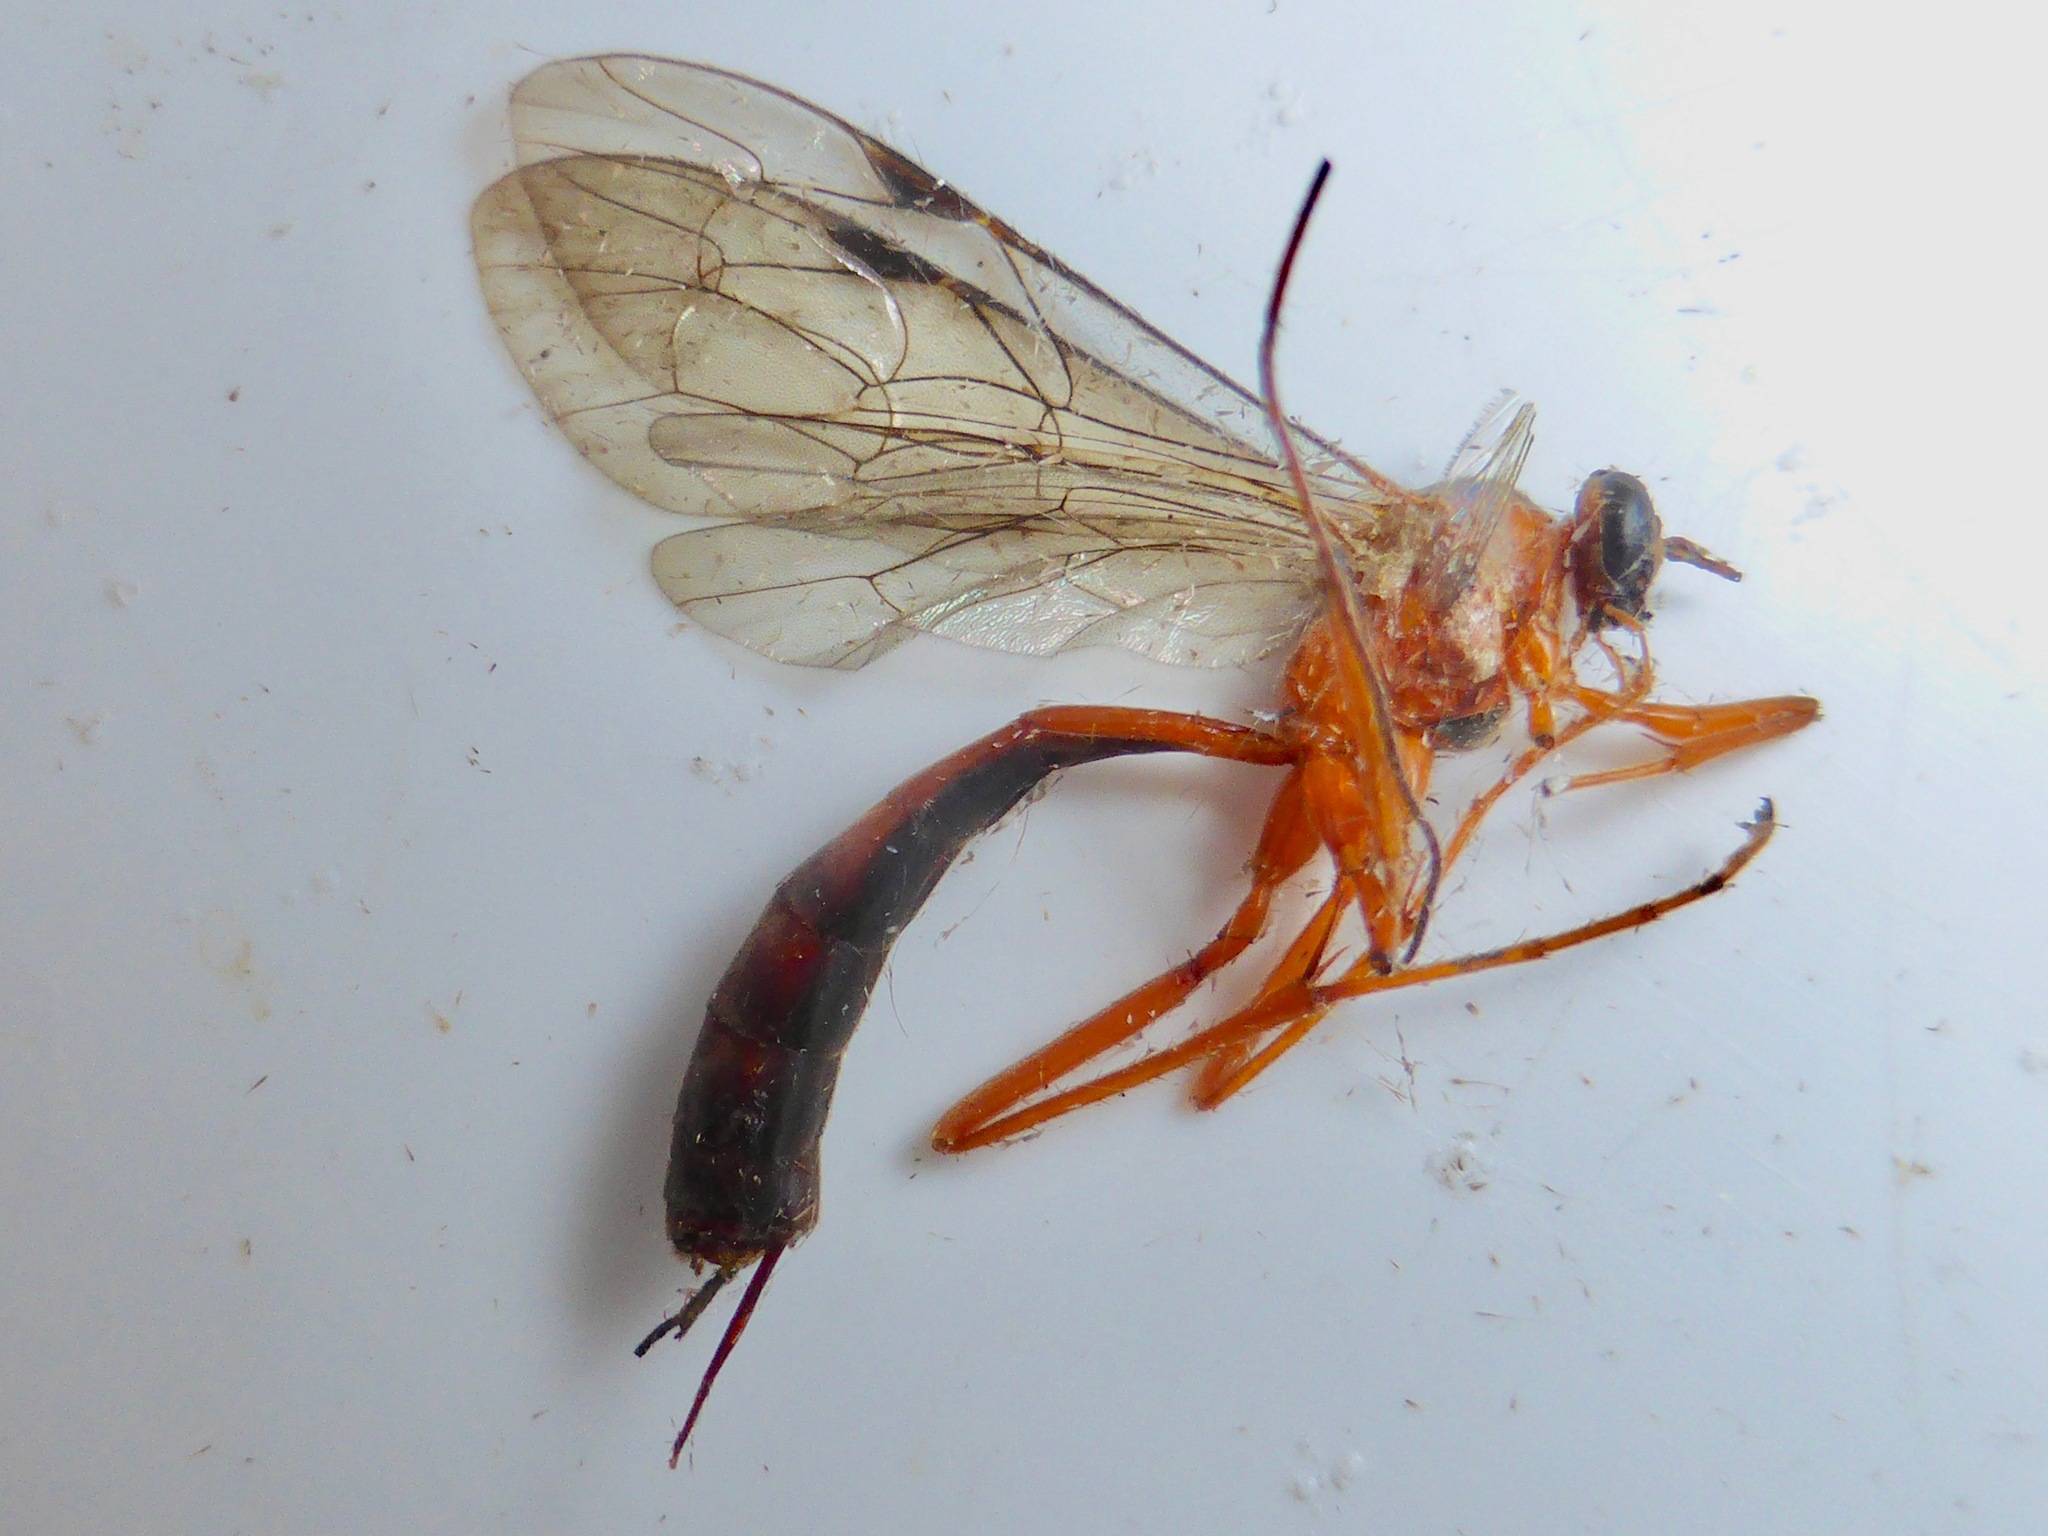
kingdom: Animalia
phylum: Arthropoda
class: Insecta
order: Hymenoptera
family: Ichneumonidae
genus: Netelia
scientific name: Netelia ephippiata
